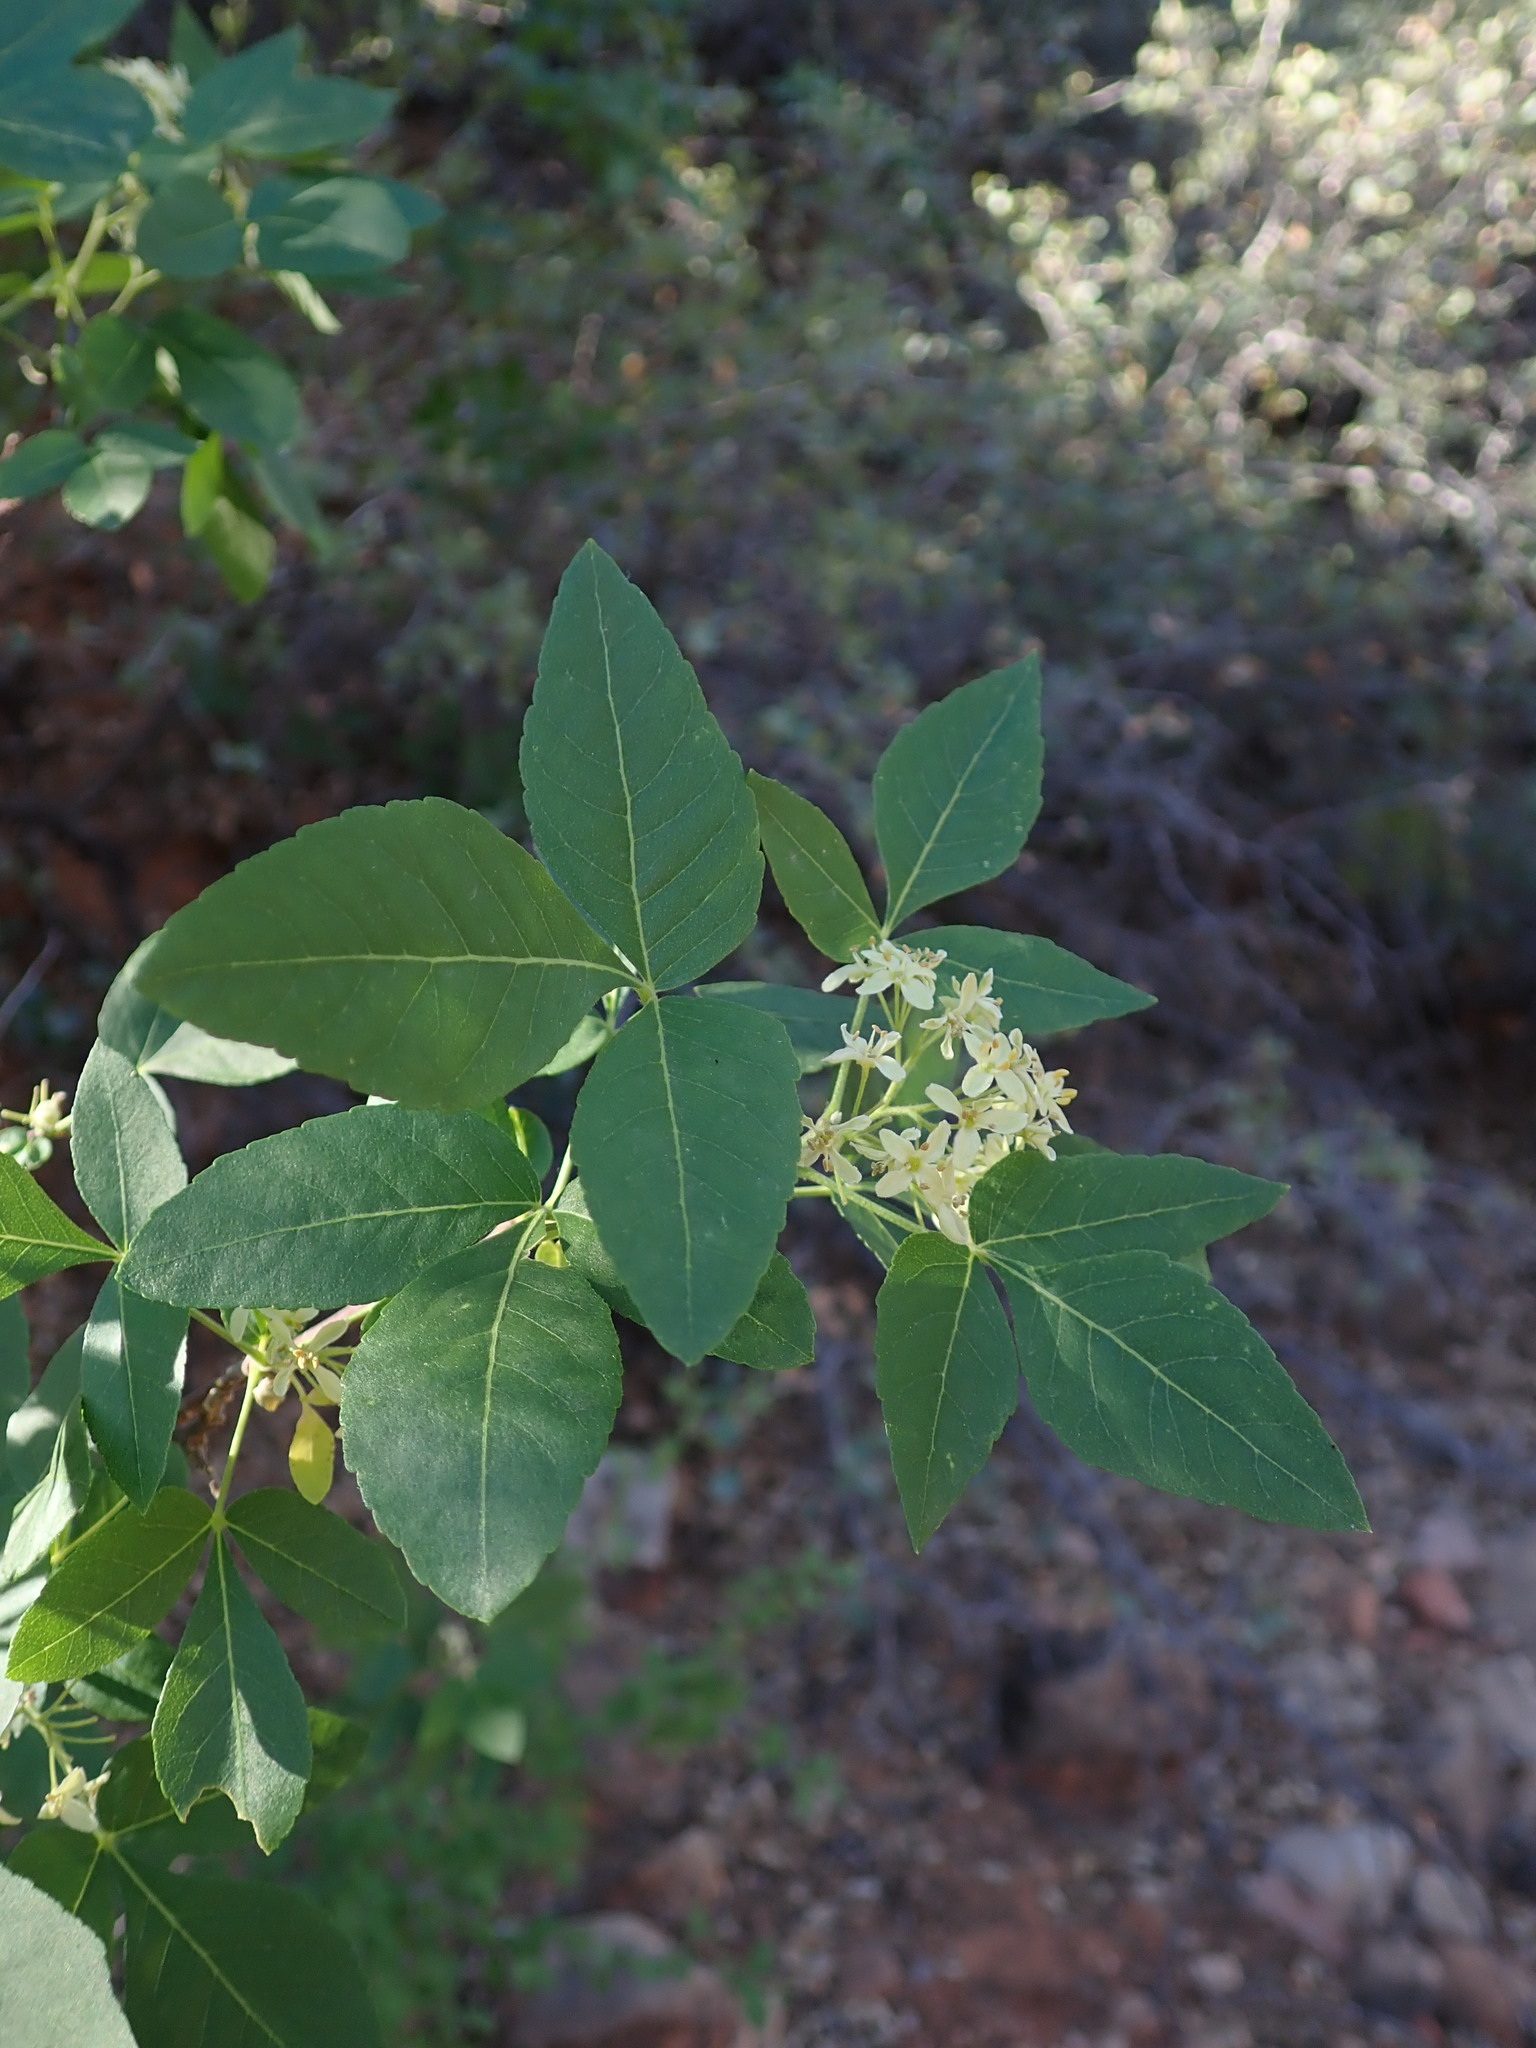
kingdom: Plantae
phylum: Tracheophyta
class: Magnoliopsida
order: Sapindales
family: Rutaceae
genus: Ptelea
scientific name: Ptelea trifoliata
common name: Common hop-tree
